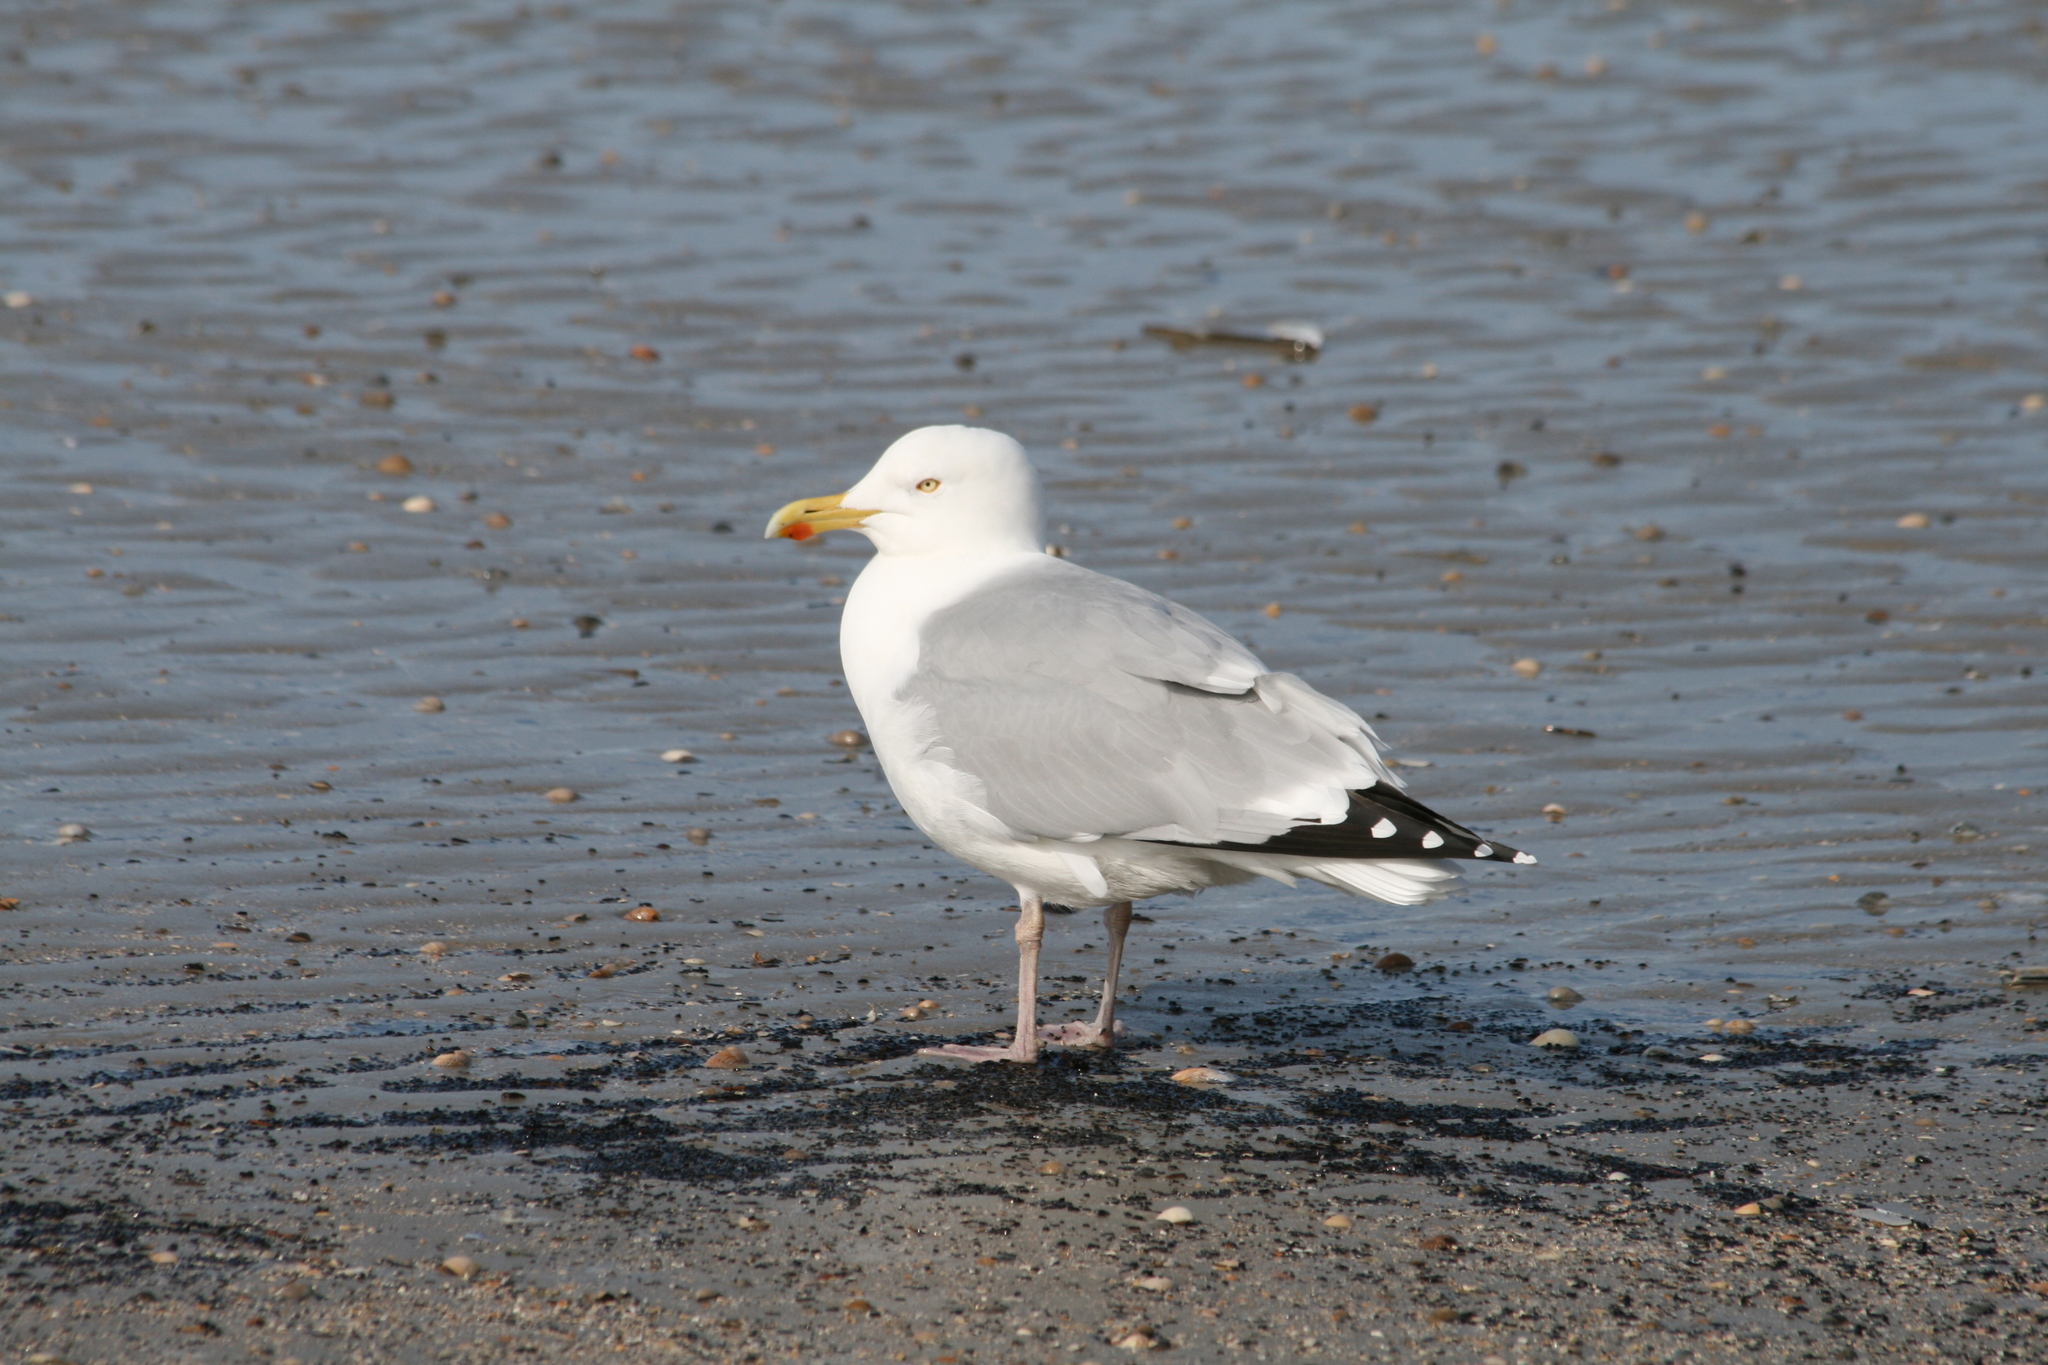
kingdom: Animalia
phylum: Chordata
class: Aves
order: Charadriiformes
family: Laridae
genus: Larus
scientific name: Larus argentatus
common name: Herring gull
